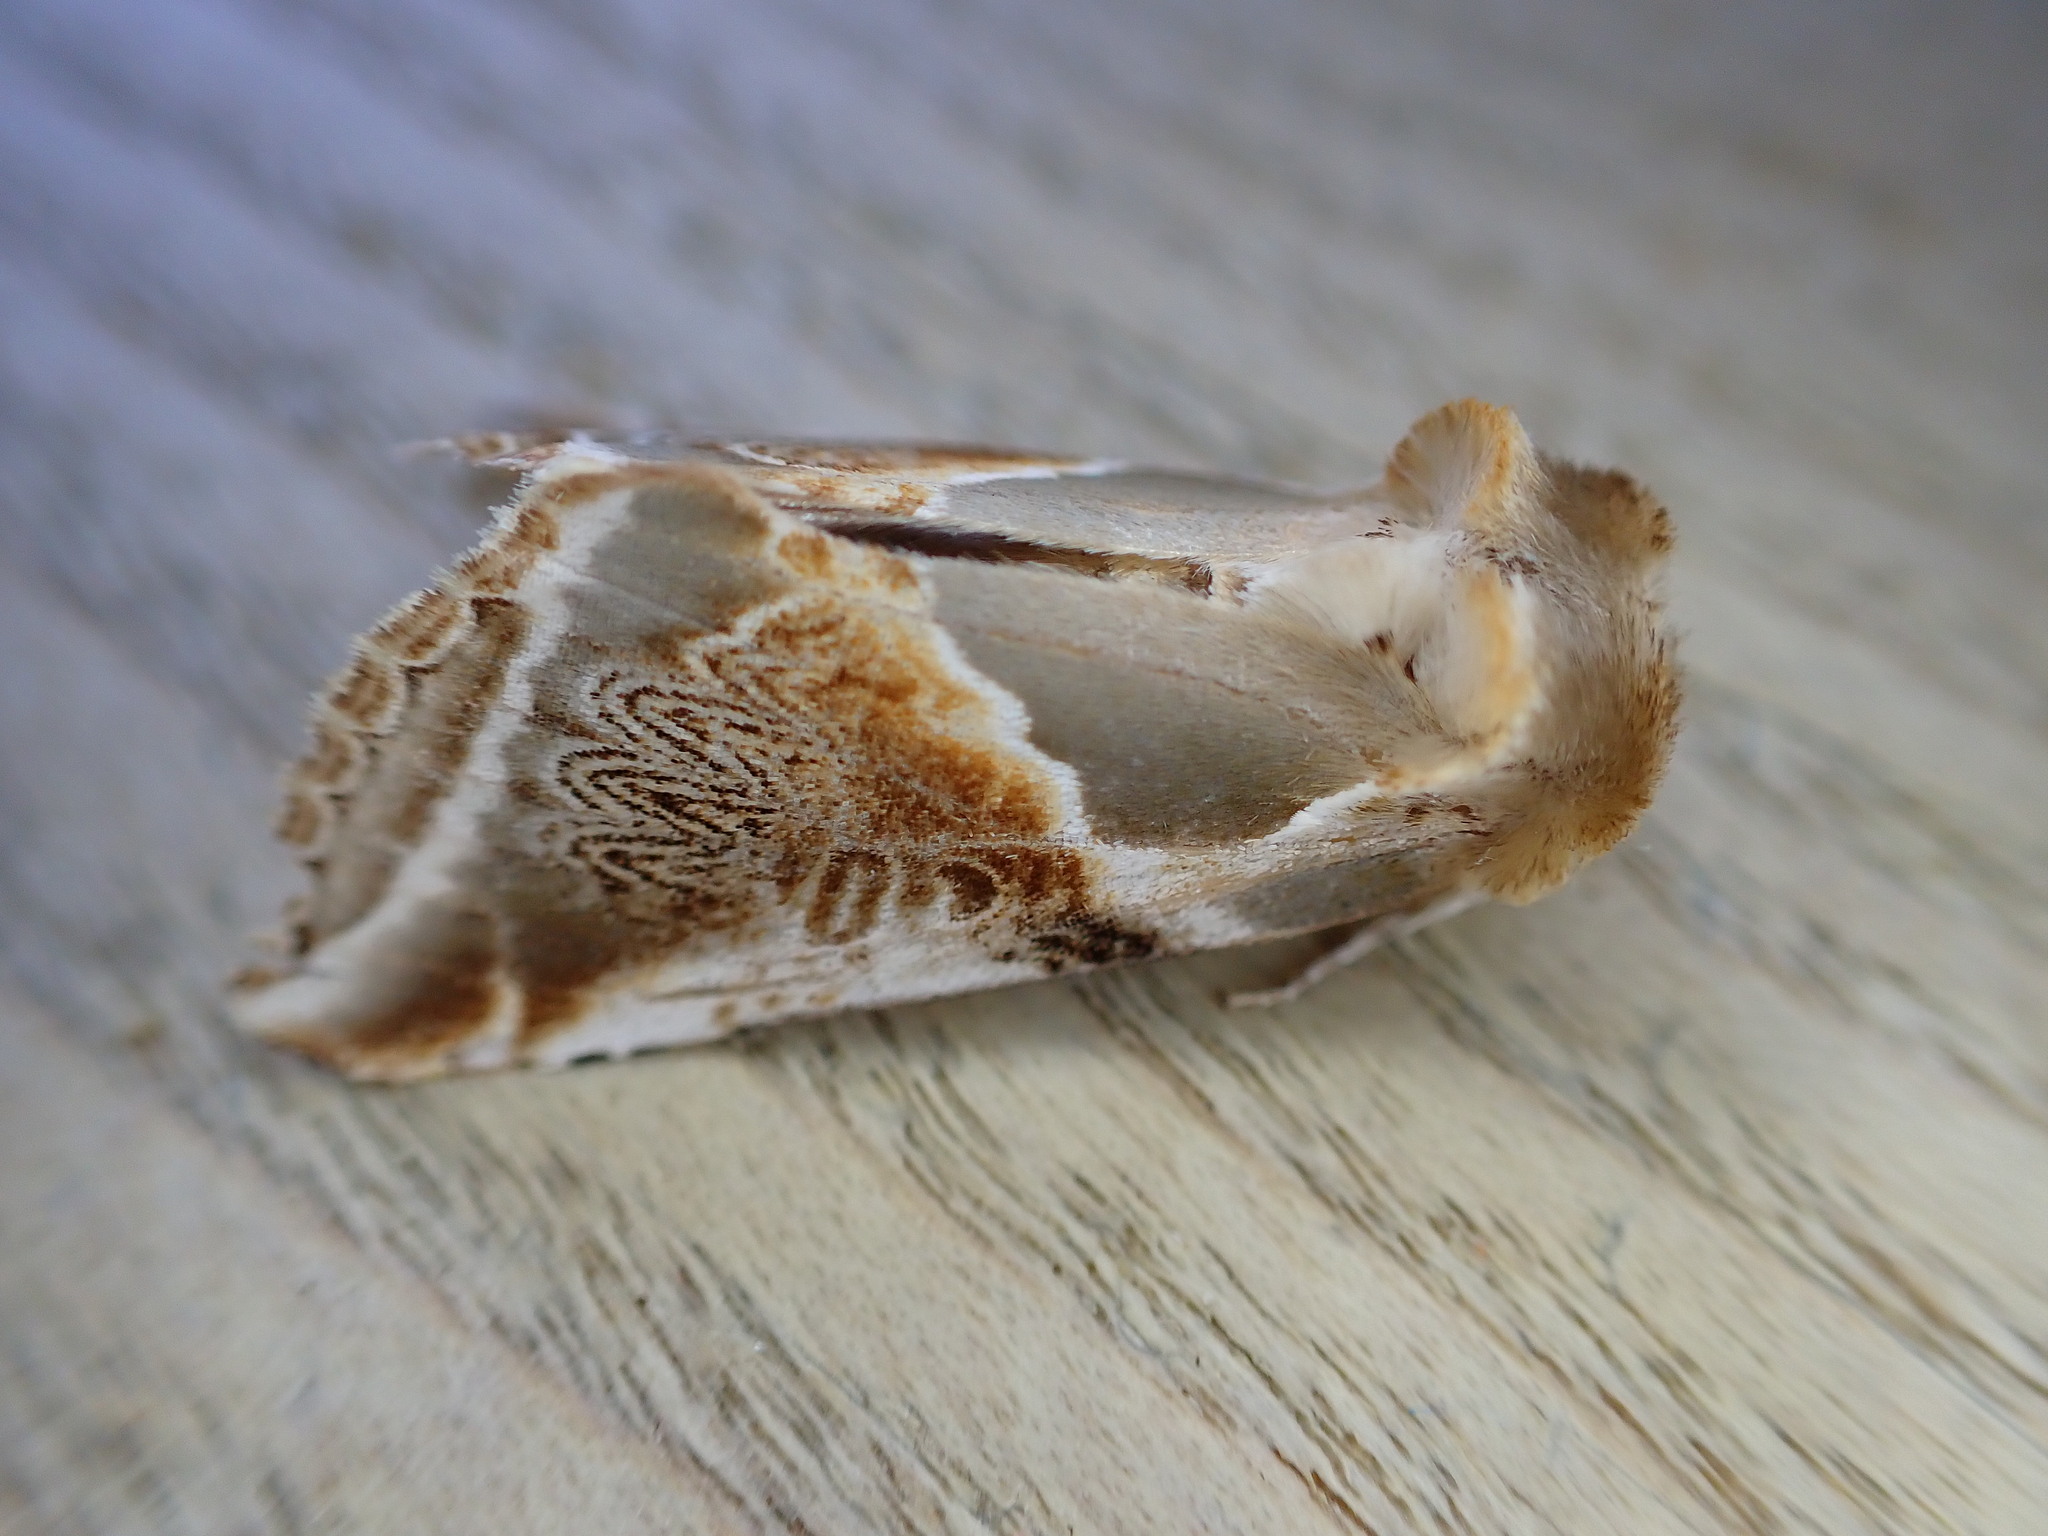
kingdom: Animalia
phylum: Arthropoda
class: Insecta
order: Lepidoptera
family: Drepanidae
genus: Habrosyne
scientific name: Habrosyne pyritoides
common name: Buff arches
